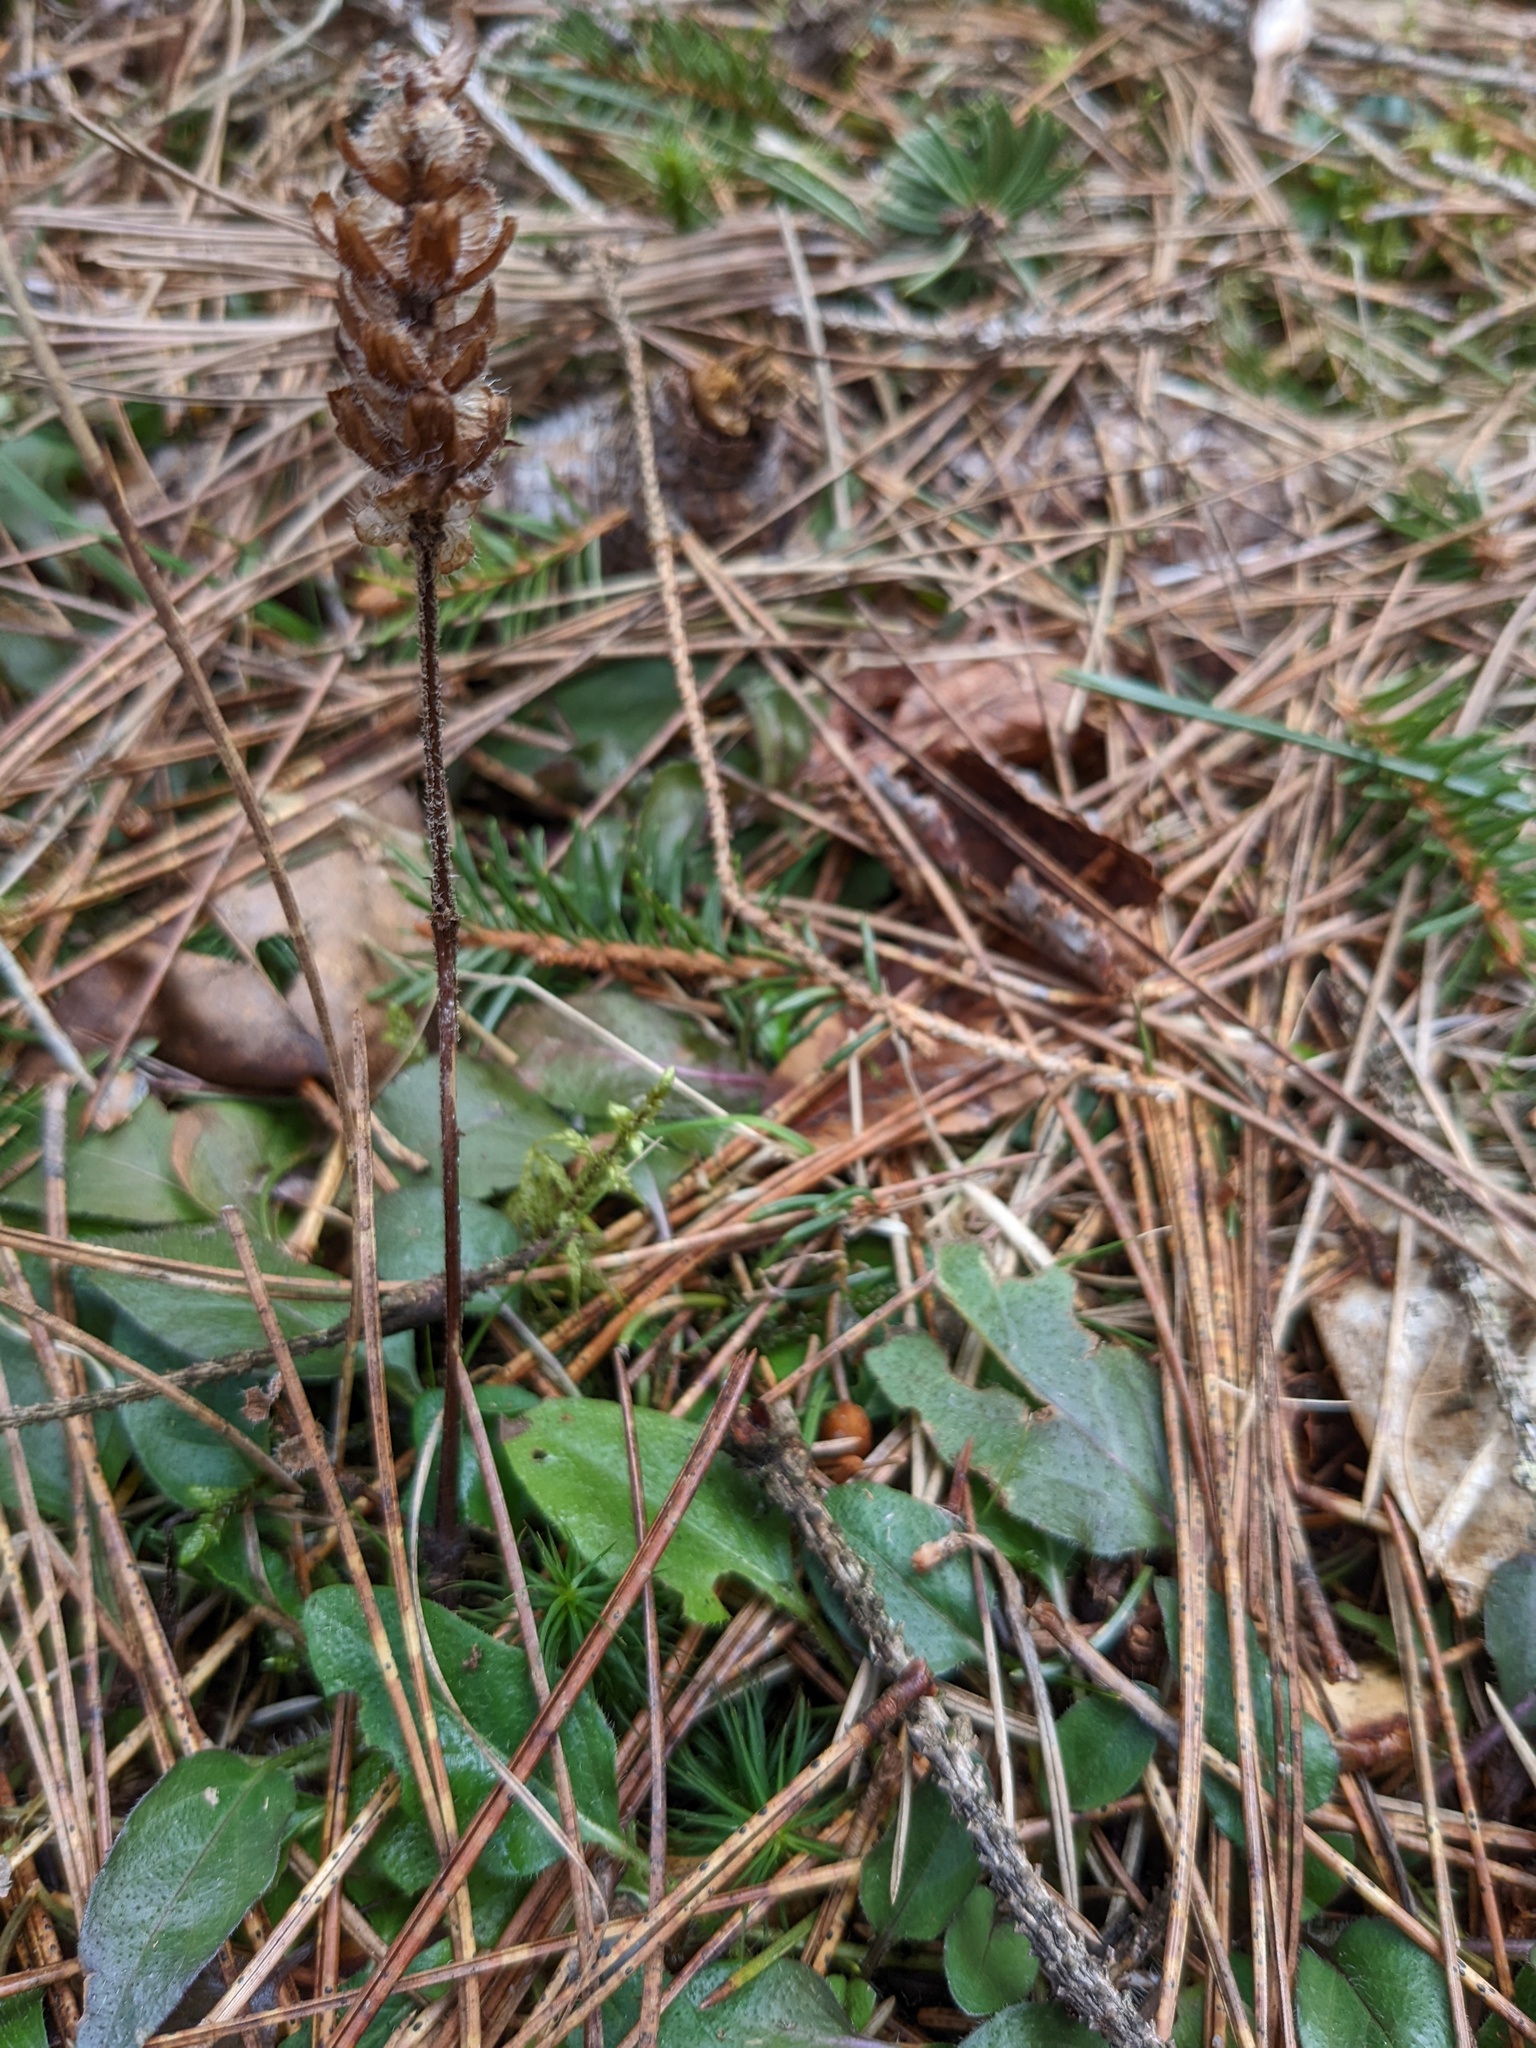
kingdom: Plantae
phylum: Tracheophyta
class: Magnoliopsida
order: Lamiales
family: Lamiaceae
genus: Prunella
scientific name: Prunella vulgaris
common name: Heal-all
